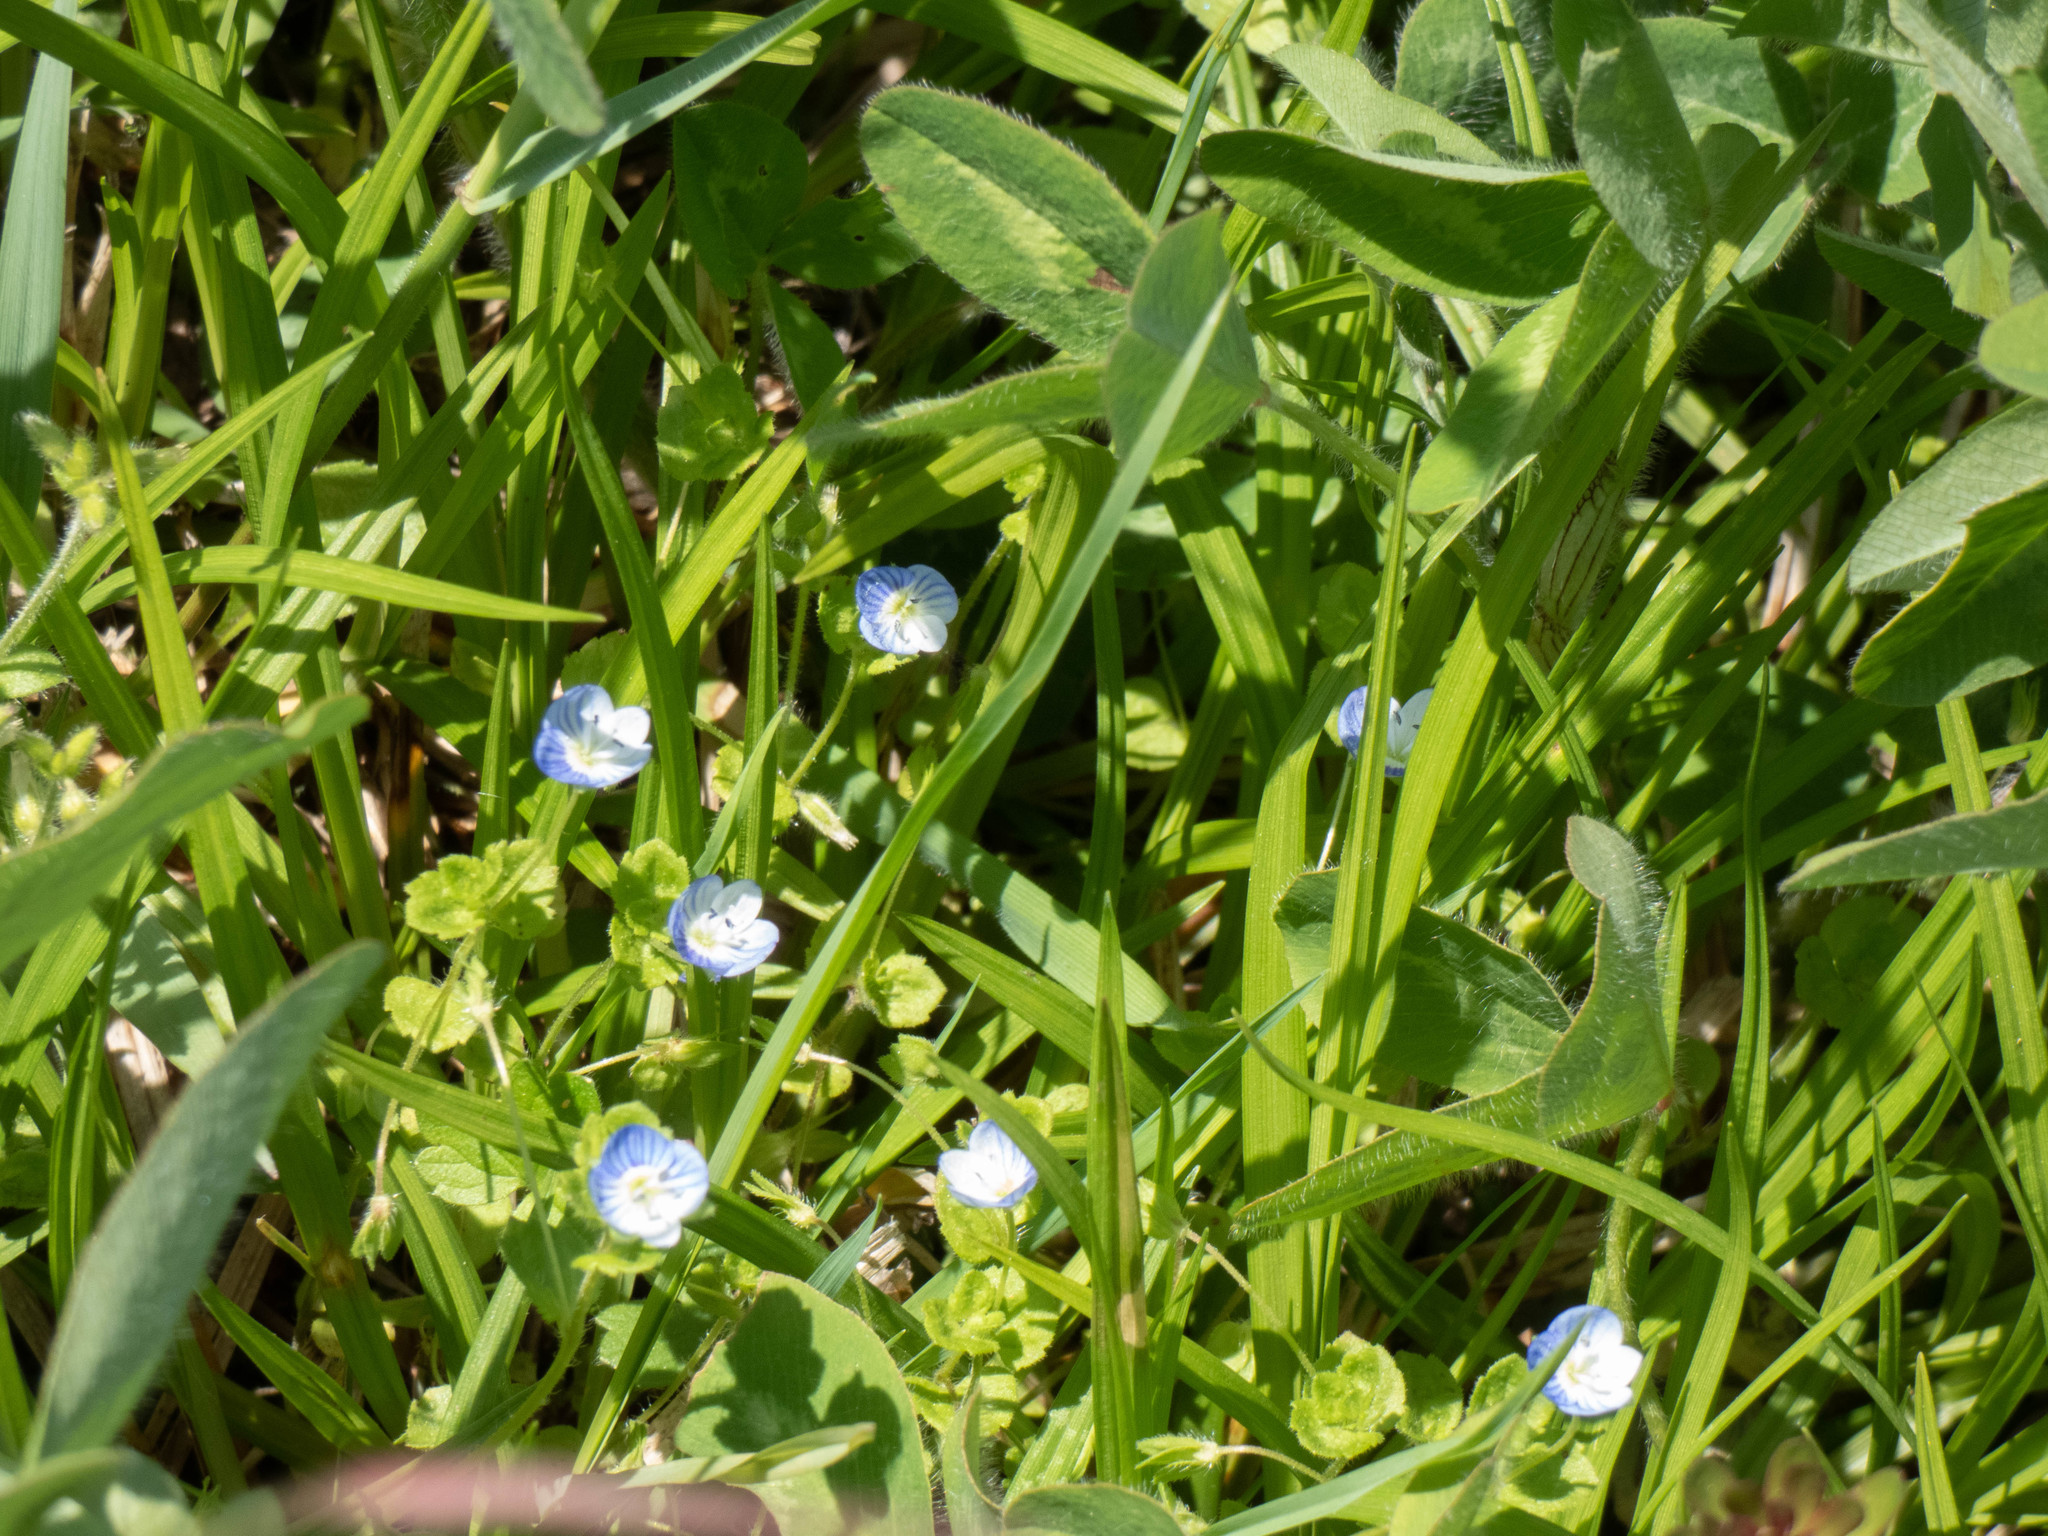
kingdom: Plantae
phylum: Tracheophyta
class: Magnoliopsida
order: Lamiales
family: Plantaginaceae
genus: Veronica
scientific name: Veronica persica
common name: Common field-speedwell
